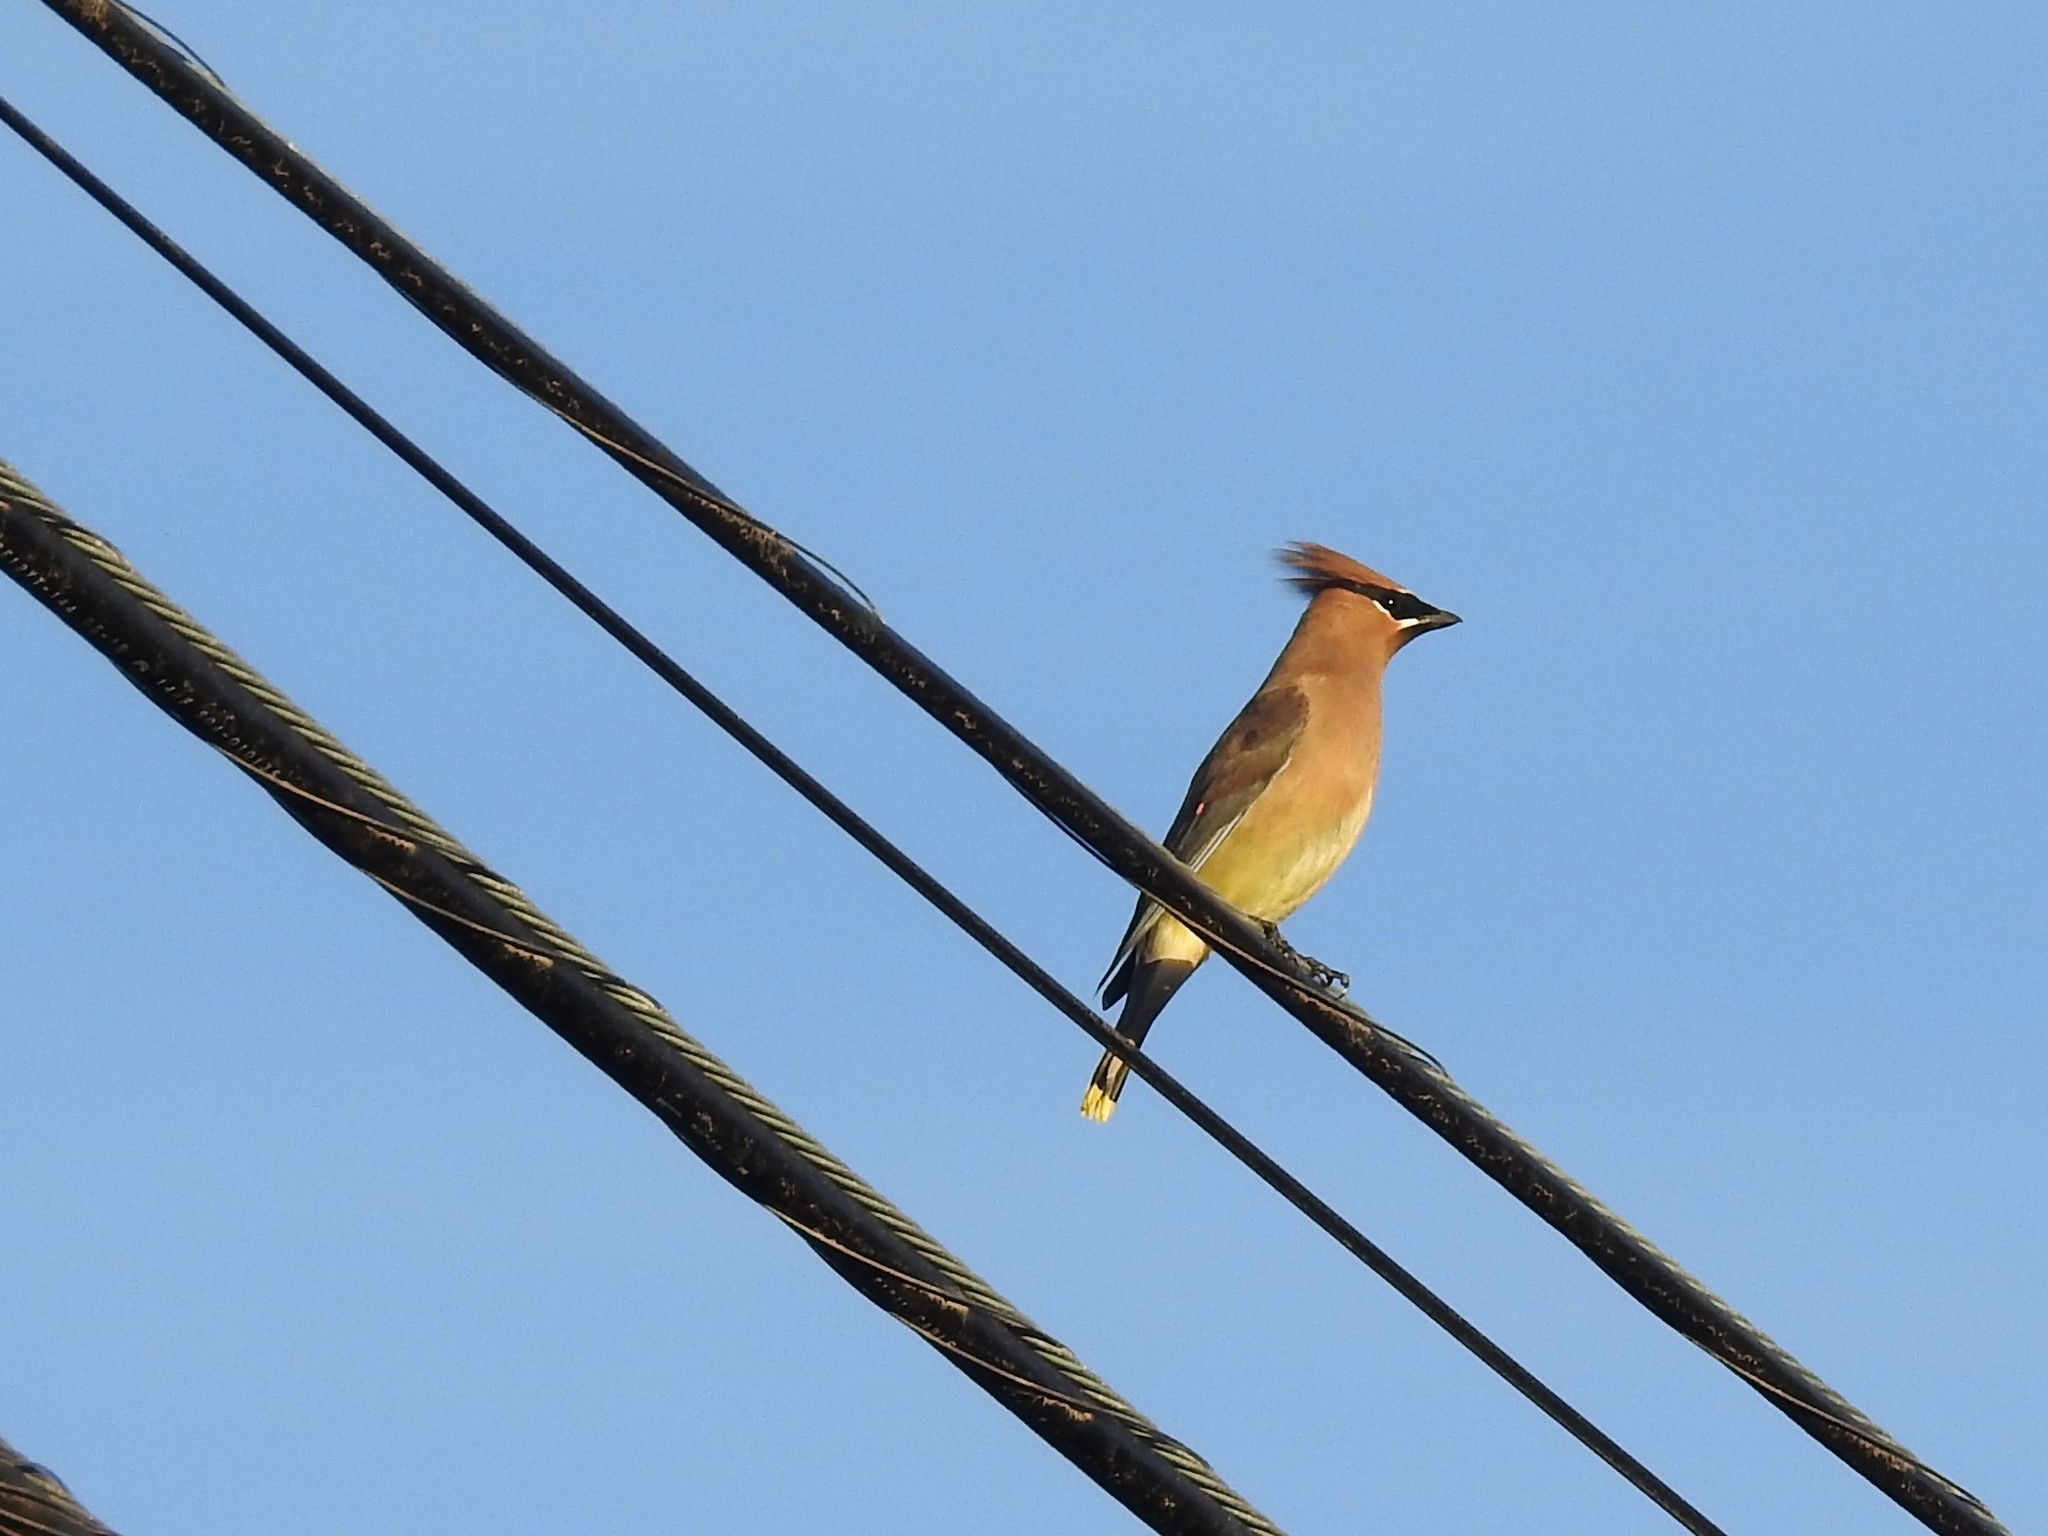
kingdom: Animalia
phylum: Chordata
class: Aves
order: Passeriformes
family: Bombycillidae
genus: Bombycilla
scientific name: Bombycilla cedrorum
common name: Cedar waxwing
